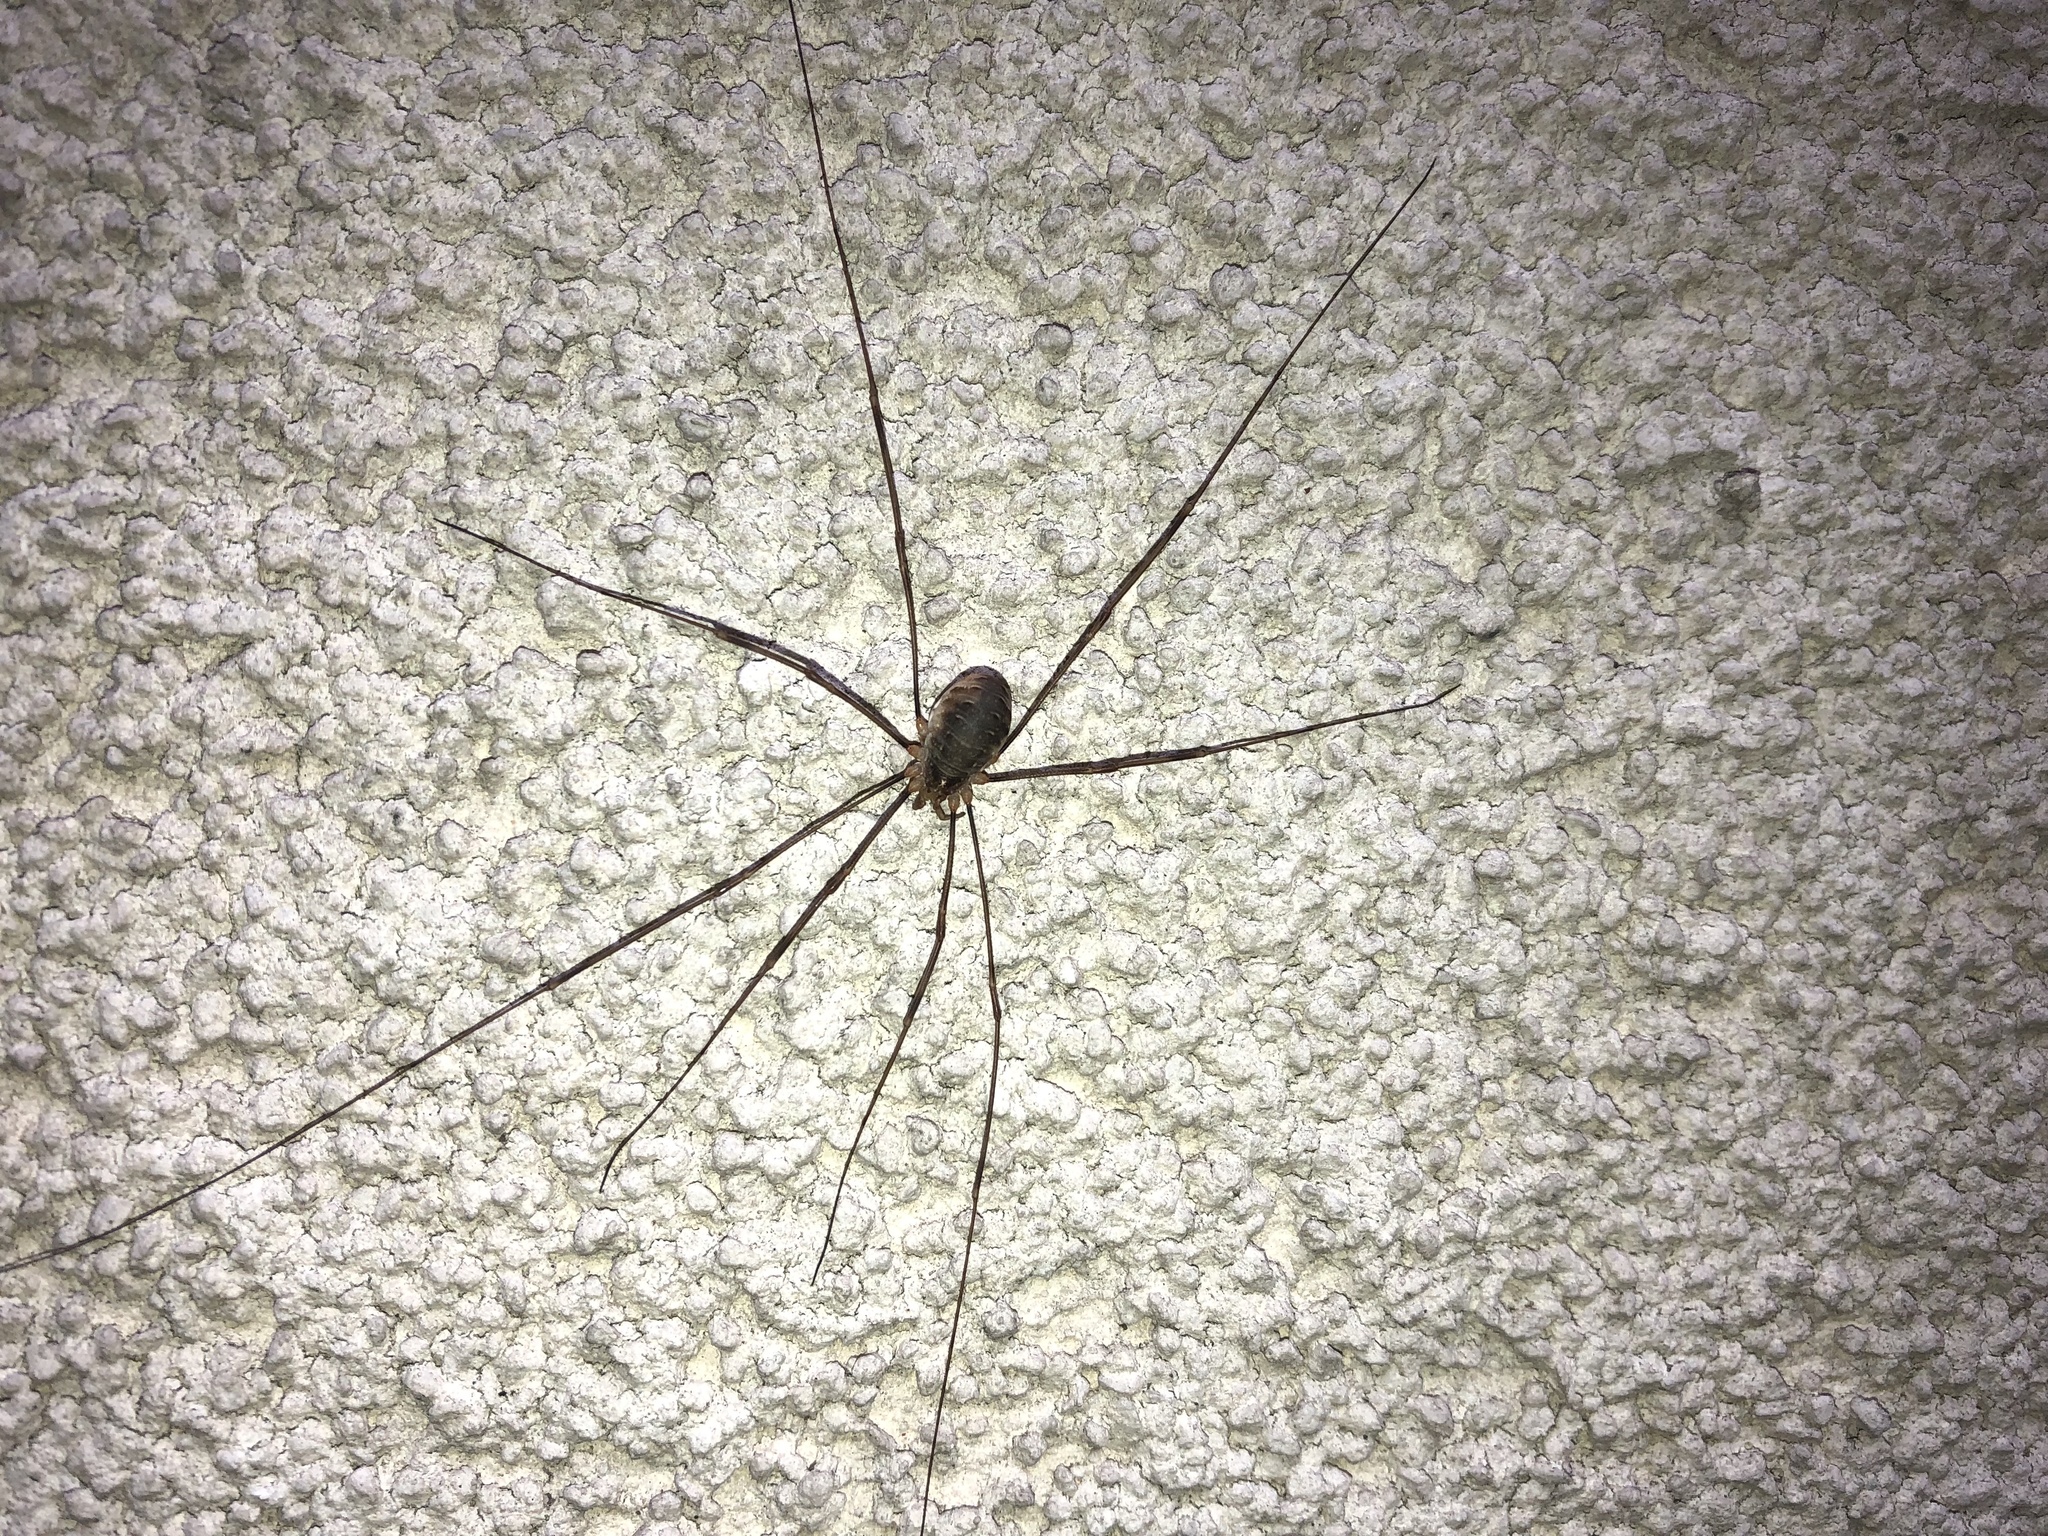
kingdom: Animalia
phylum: Arthropoda
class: Arachnida
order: Opiliones
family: Phalangiidae
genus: Opilio
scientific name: Opilio canestrinii
